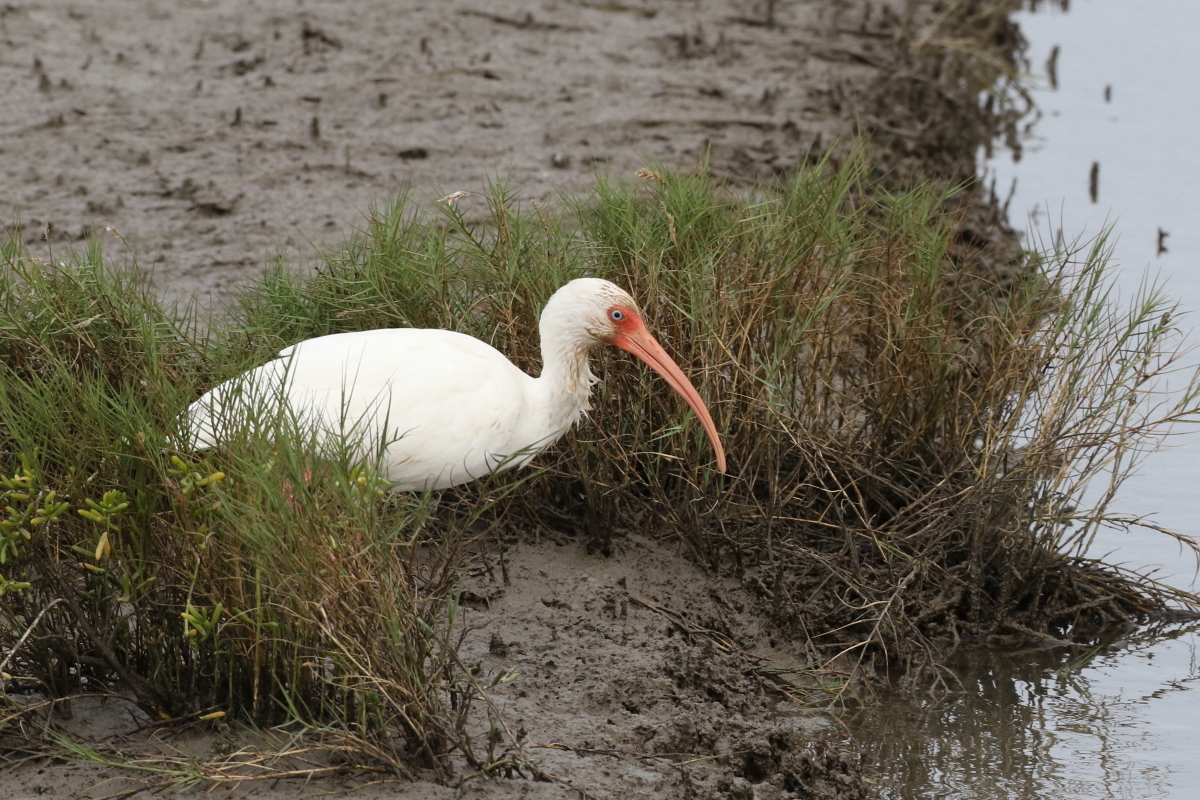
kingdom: Animalia
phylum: Chordata
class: Aves
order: Pelecaniformes
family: Threskiornithidae
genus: Eudocimus
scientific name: Eudocimus albus
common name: White ibis
